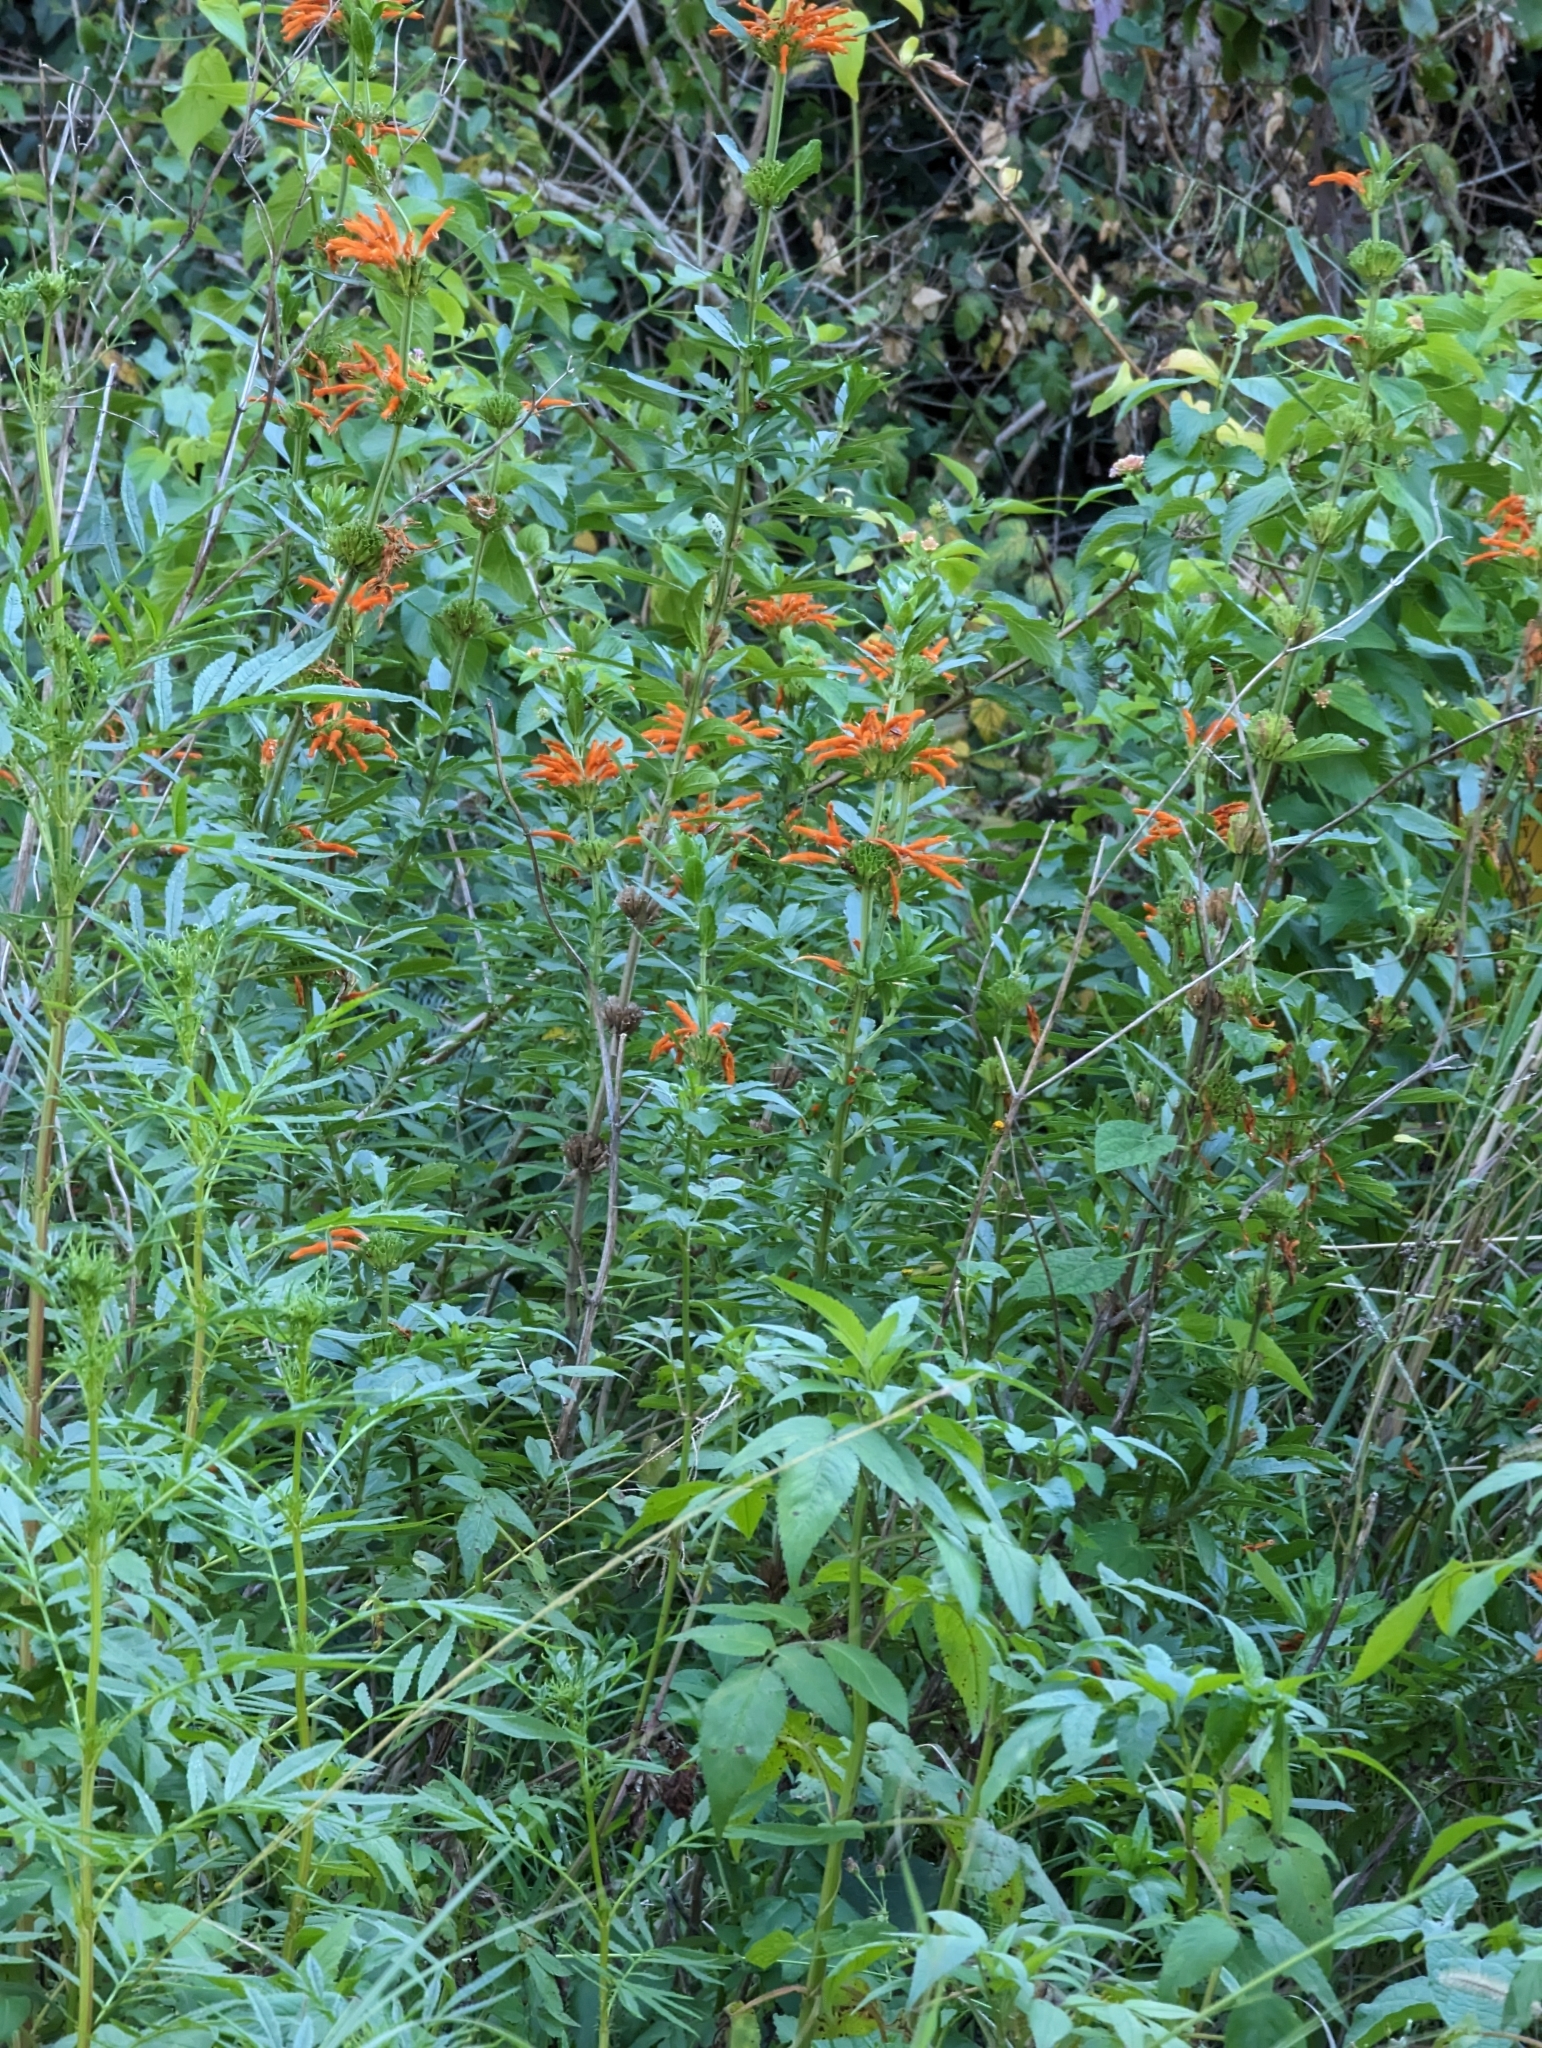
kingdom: Plantae
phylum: Tracheophyta
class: Magnoliopsida
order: Lamiales
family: Lamiaceae
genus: Leonotis
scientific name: Leonotis leonurus
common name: Lion's ear
